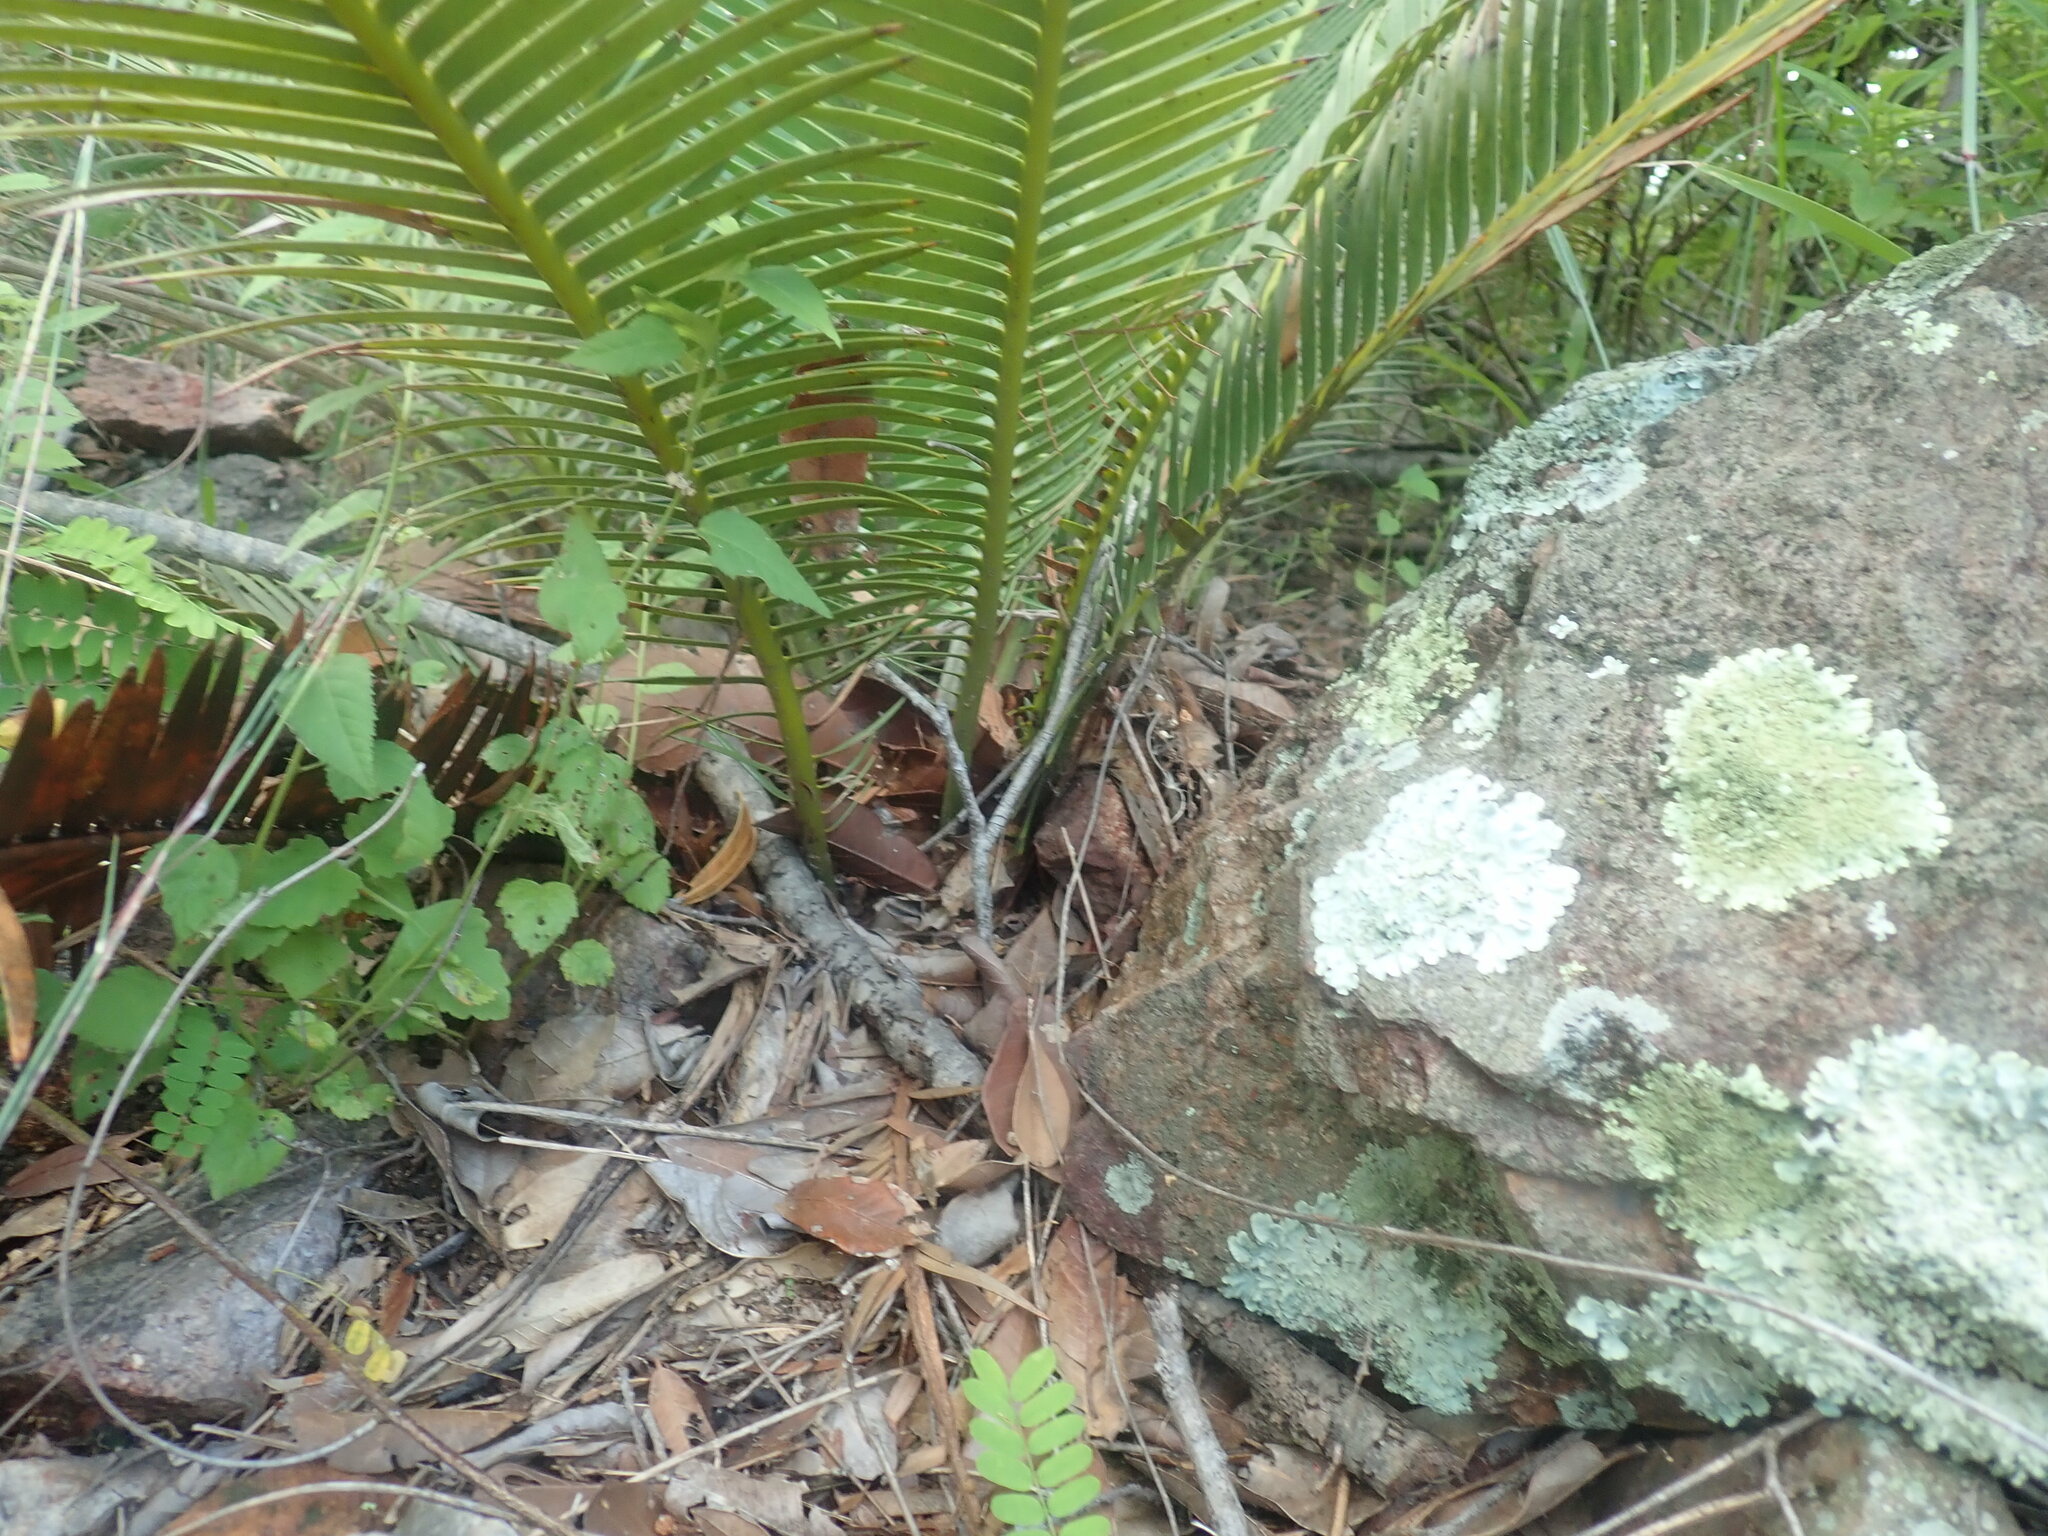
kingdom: Plantae
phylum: Tracheophyta
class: Cycadopsida
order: Cycadales
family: Zamiaceae
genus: Dioon
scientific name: Dioon edule
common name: Edible-seed cycas
